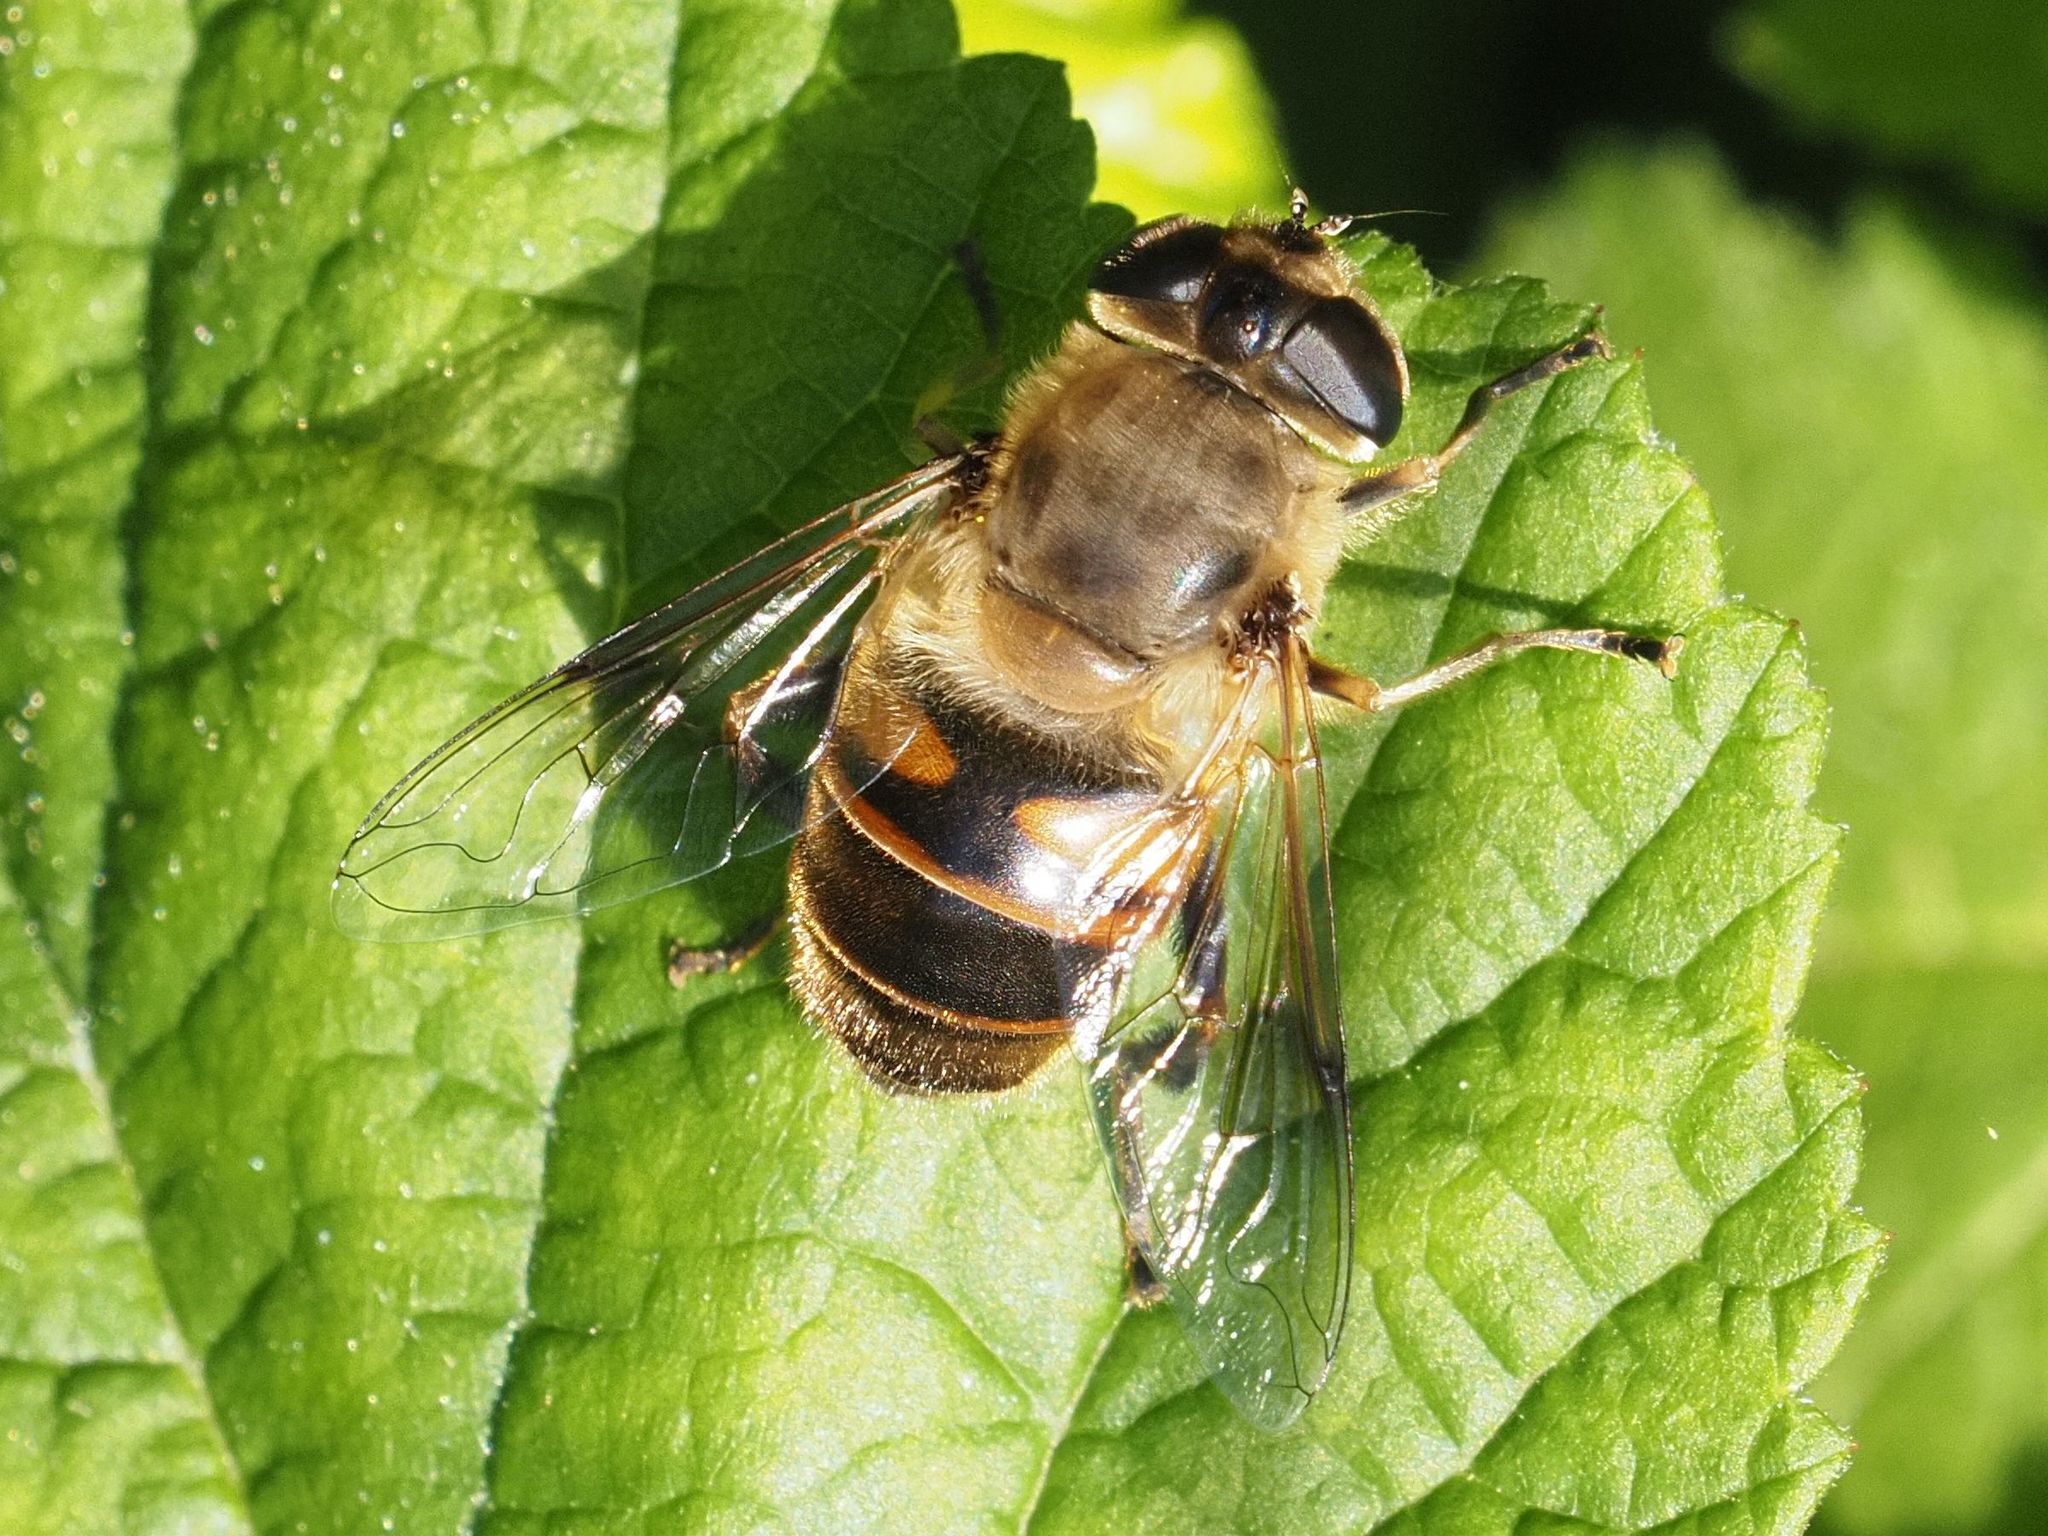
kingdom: Animalia
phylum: Arthropoda
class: Insecta
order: Diptera
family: Syrphidae
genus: Eristalis
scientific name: Eristalis tenax
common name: Drone fly
